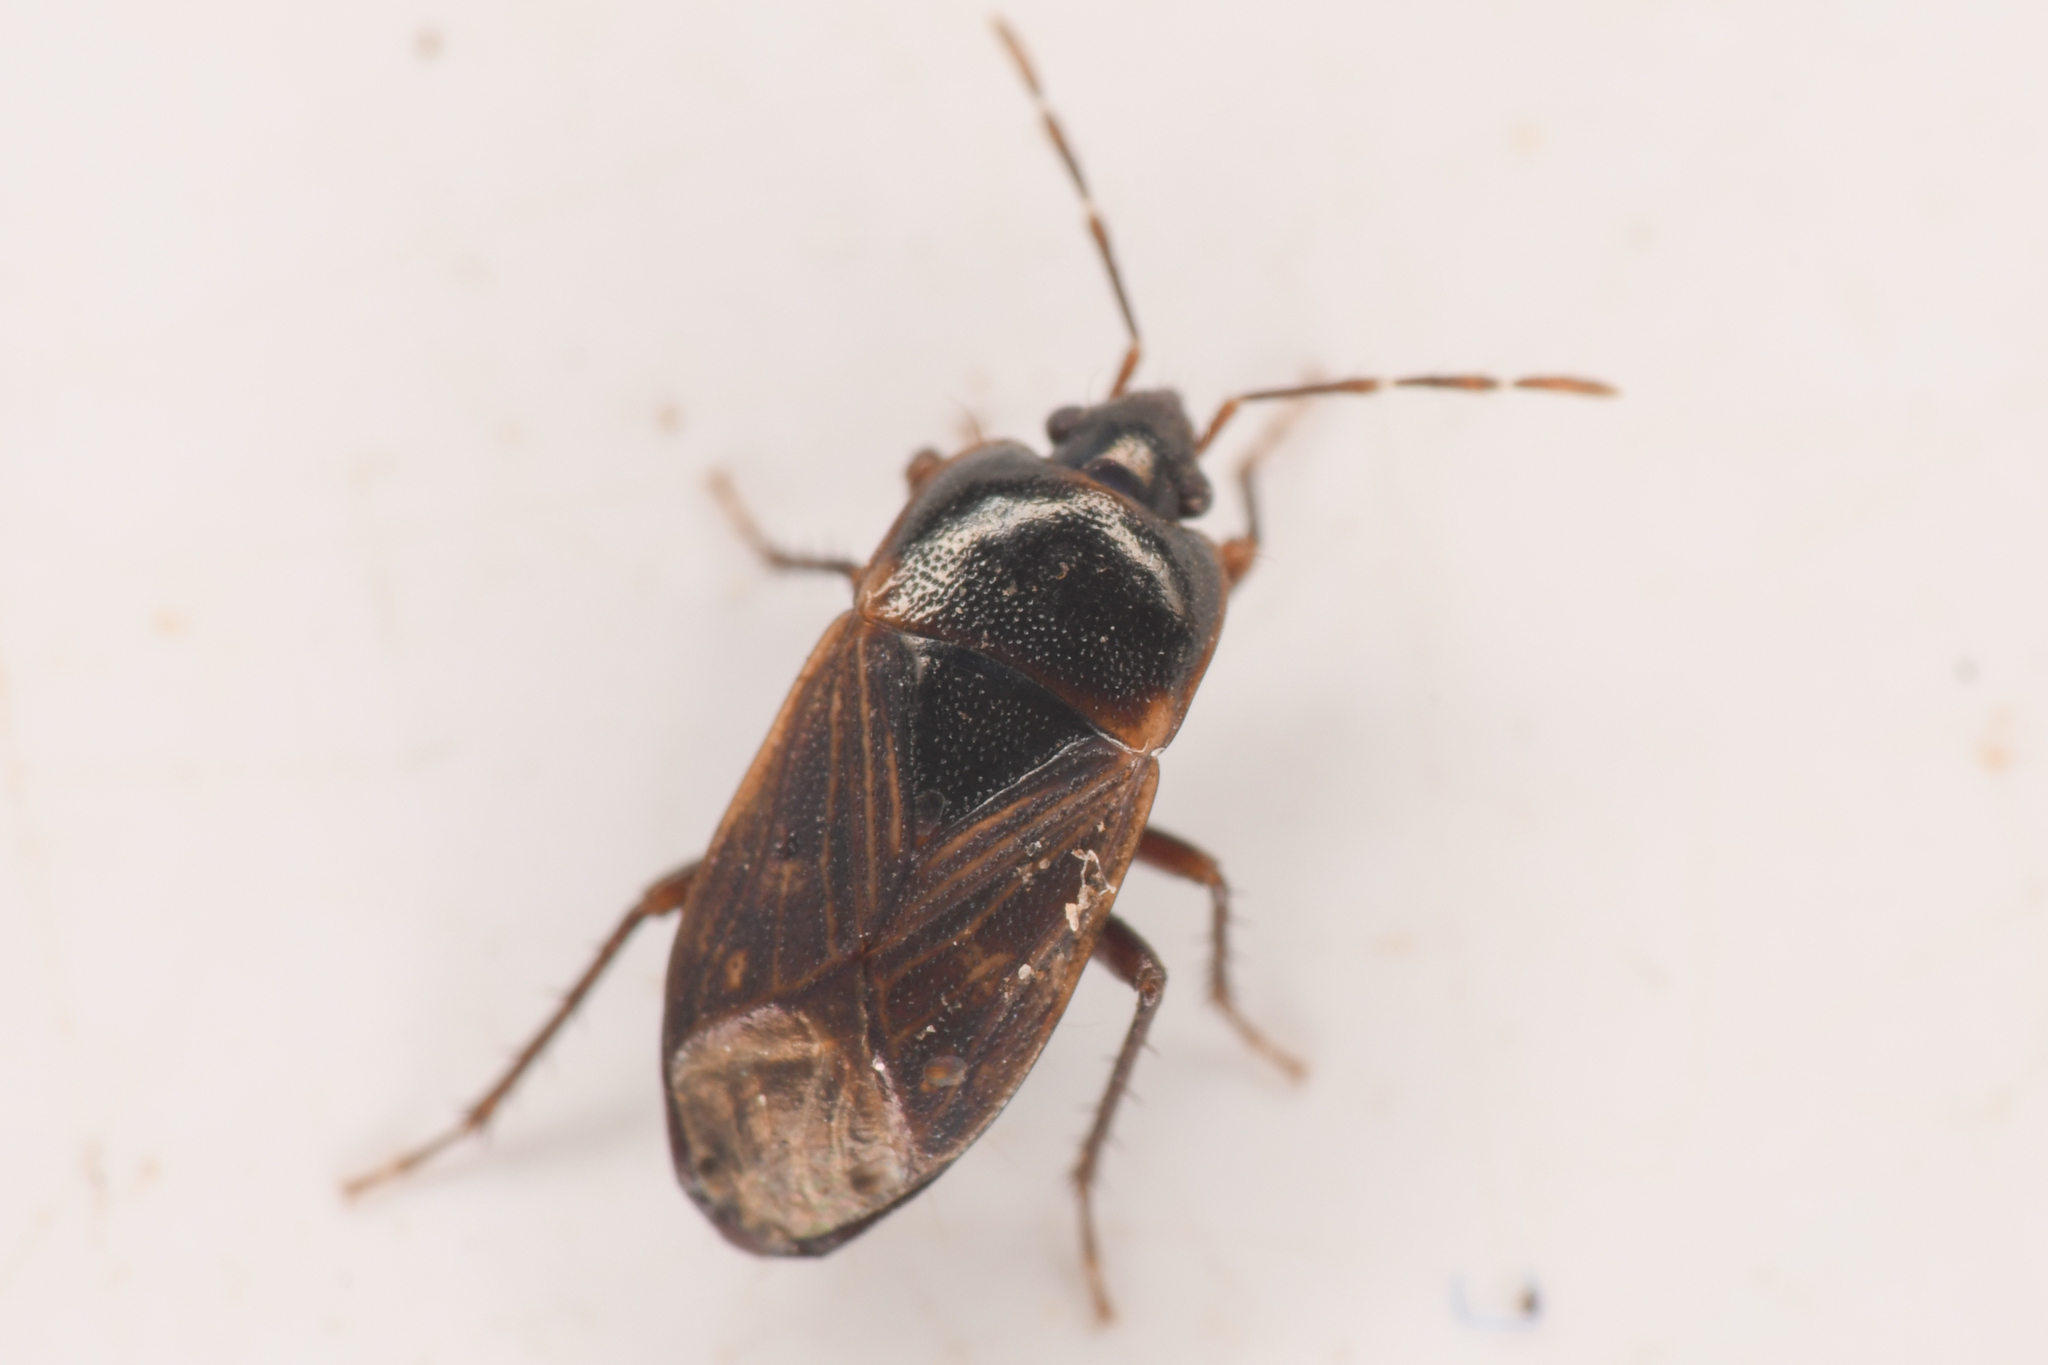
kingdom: Animalia
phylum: Arthropoda
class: Insecta
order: Hemiptera
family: Rhyparochromidae
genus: Cryphula
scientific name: Cryphula nitens
